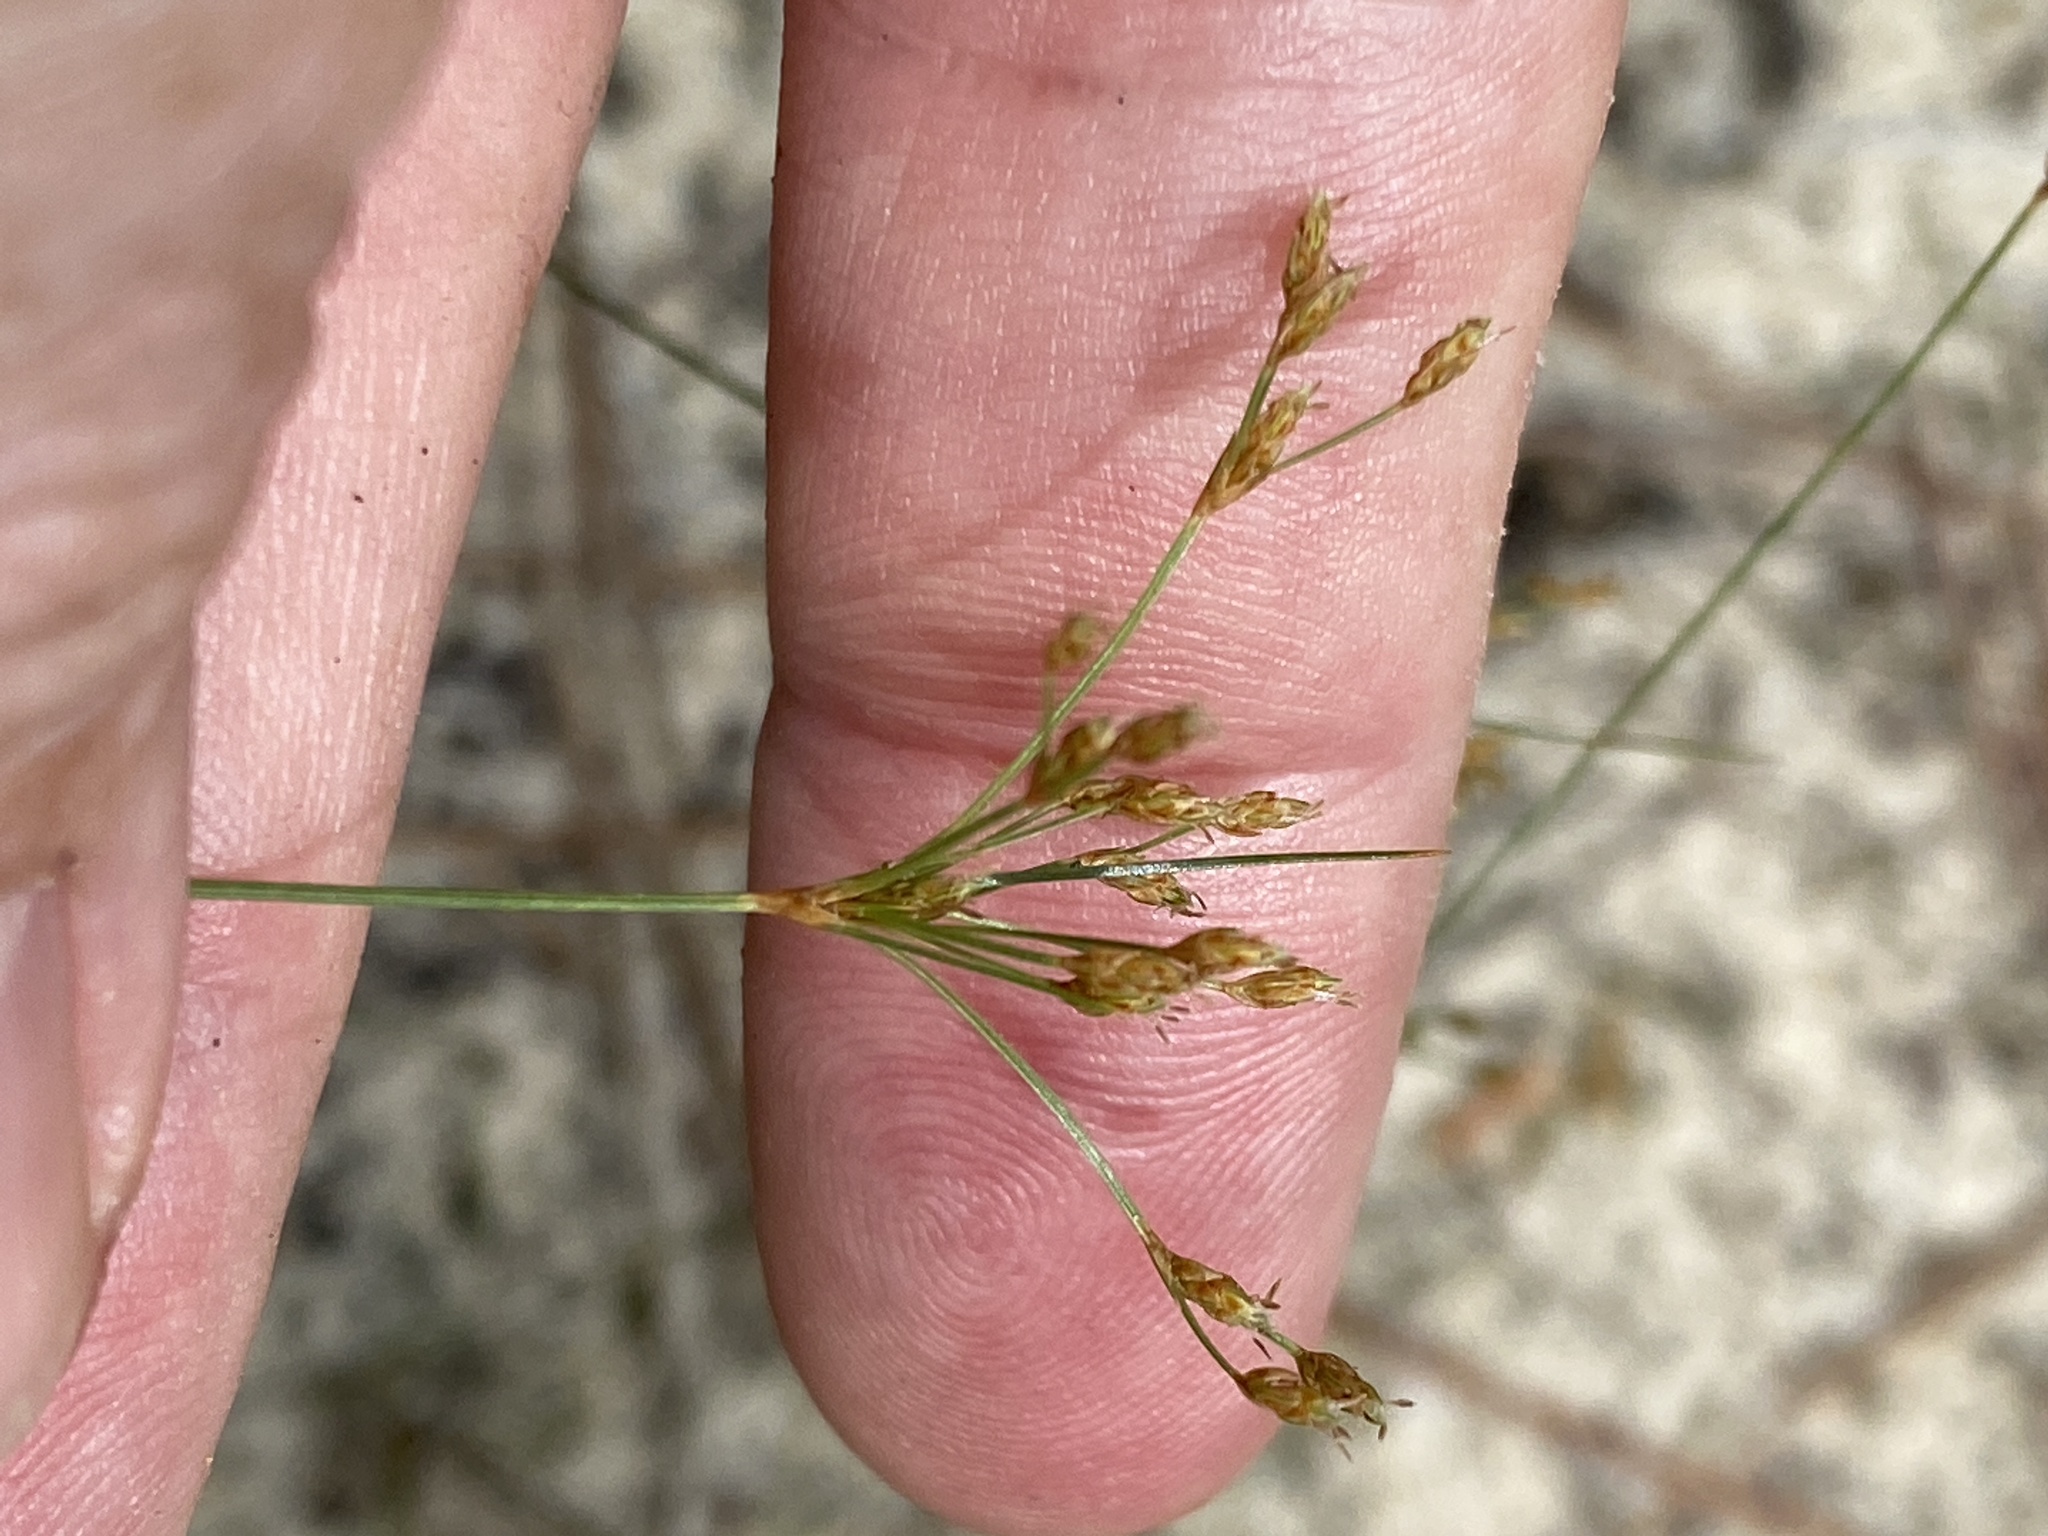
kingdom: Plantae
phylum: Tracheophyta
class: Liliopsida
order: Poales
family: Cyperaceae
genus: Bulbostylis
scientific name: Bulbostylis ciliatifolia
